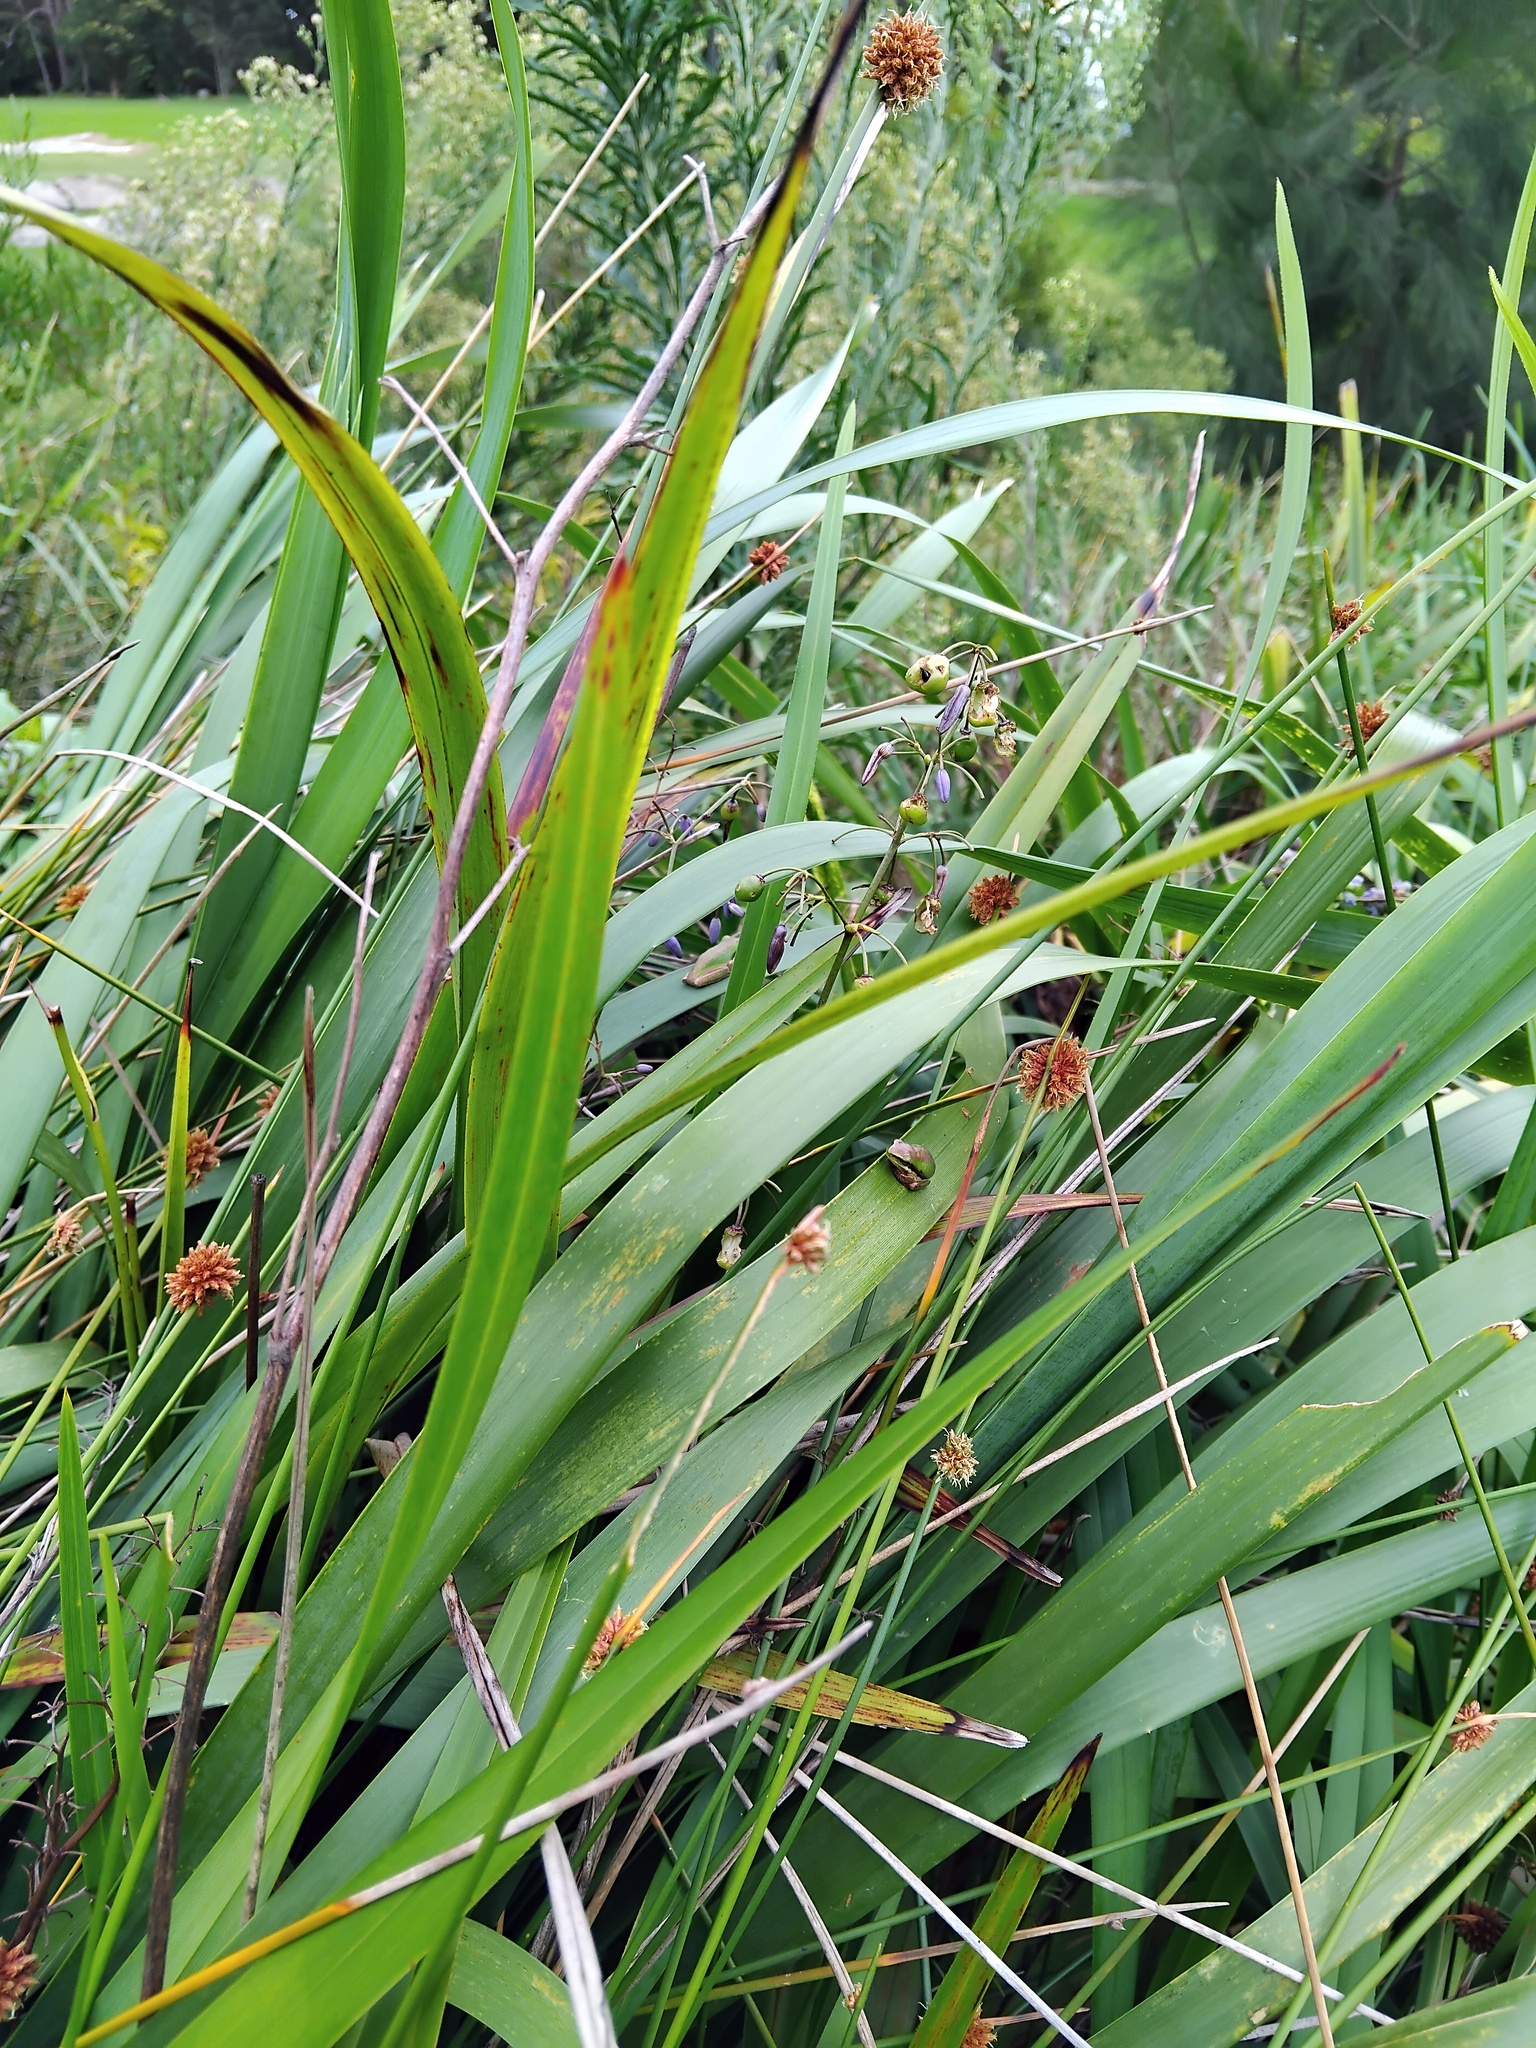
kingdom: Animalia
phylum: Chordata
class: Amphibia
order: Anura
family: Pelodryadidae
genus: Litoria
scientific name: Litoria fallax
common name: Eastern dwarf treefrog
